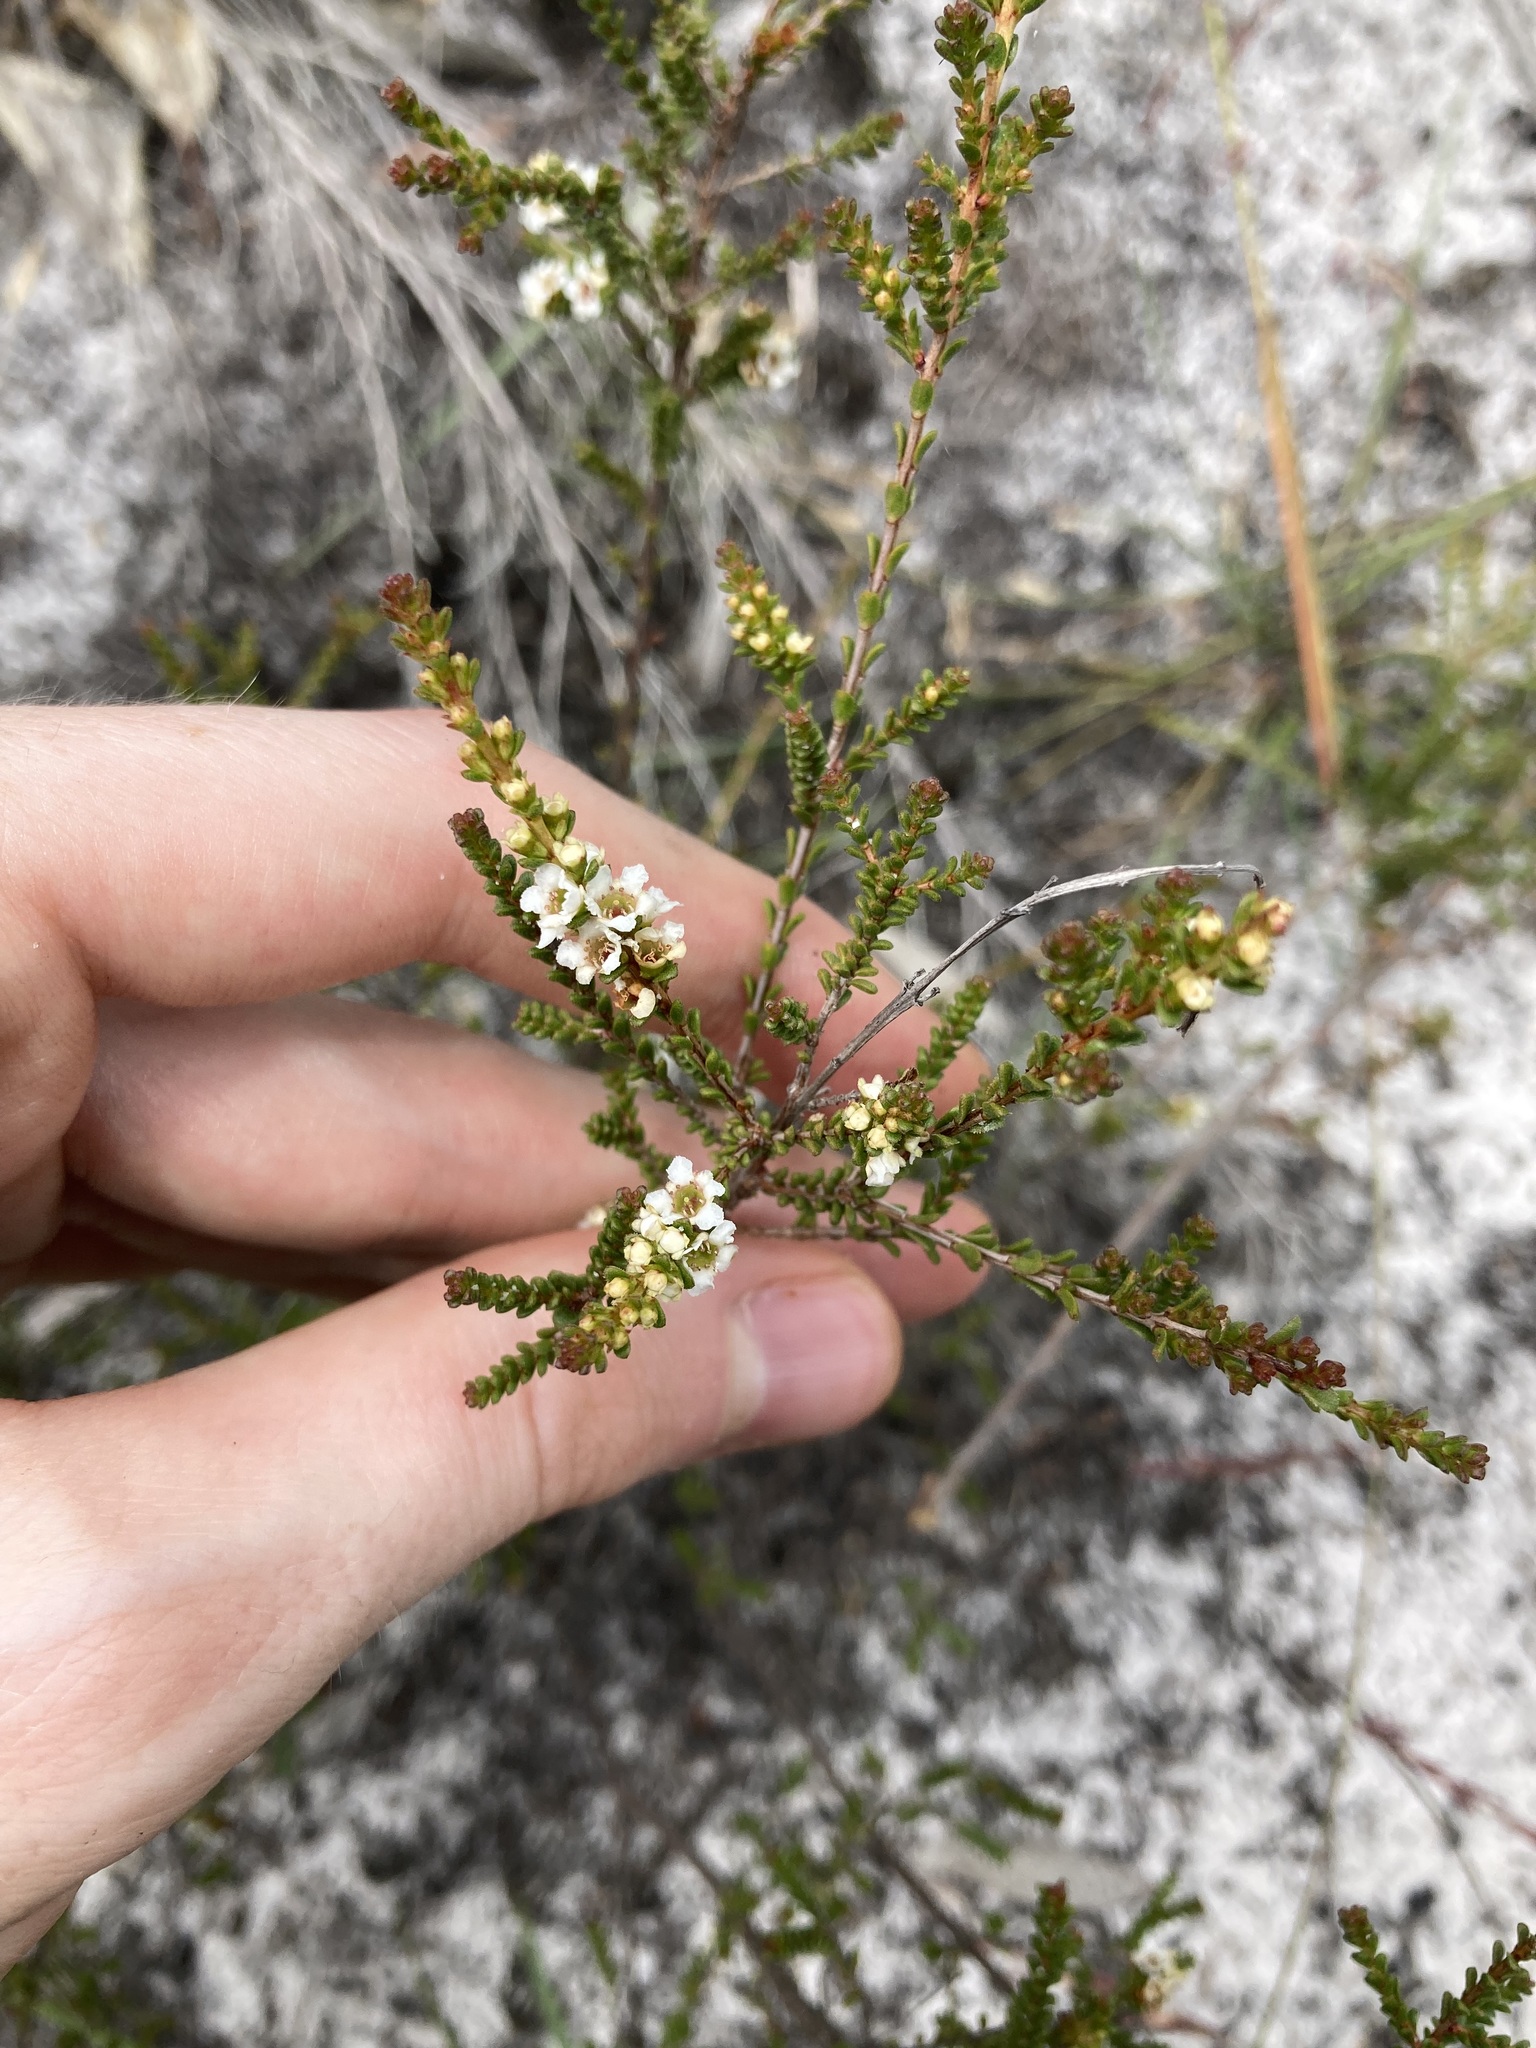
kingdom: Plantae
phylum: Tracheophyta
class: Magnoliopsida
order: Myrtales
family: Myrtaceae
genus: Baeckea
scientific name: Baeckea diosmifolia
